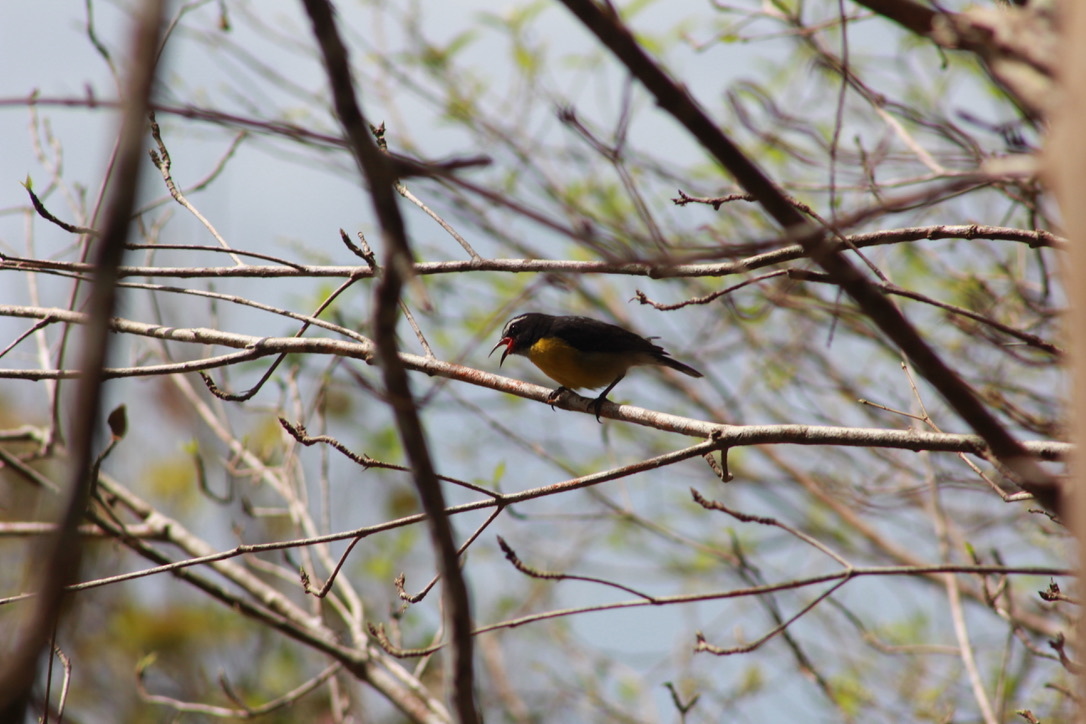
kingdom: Animalia
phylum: Chordata
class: Aves
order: Passeriformes
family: Thraupidae
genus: Coereba
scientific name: Coereba flaveola
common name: Bananaquit
